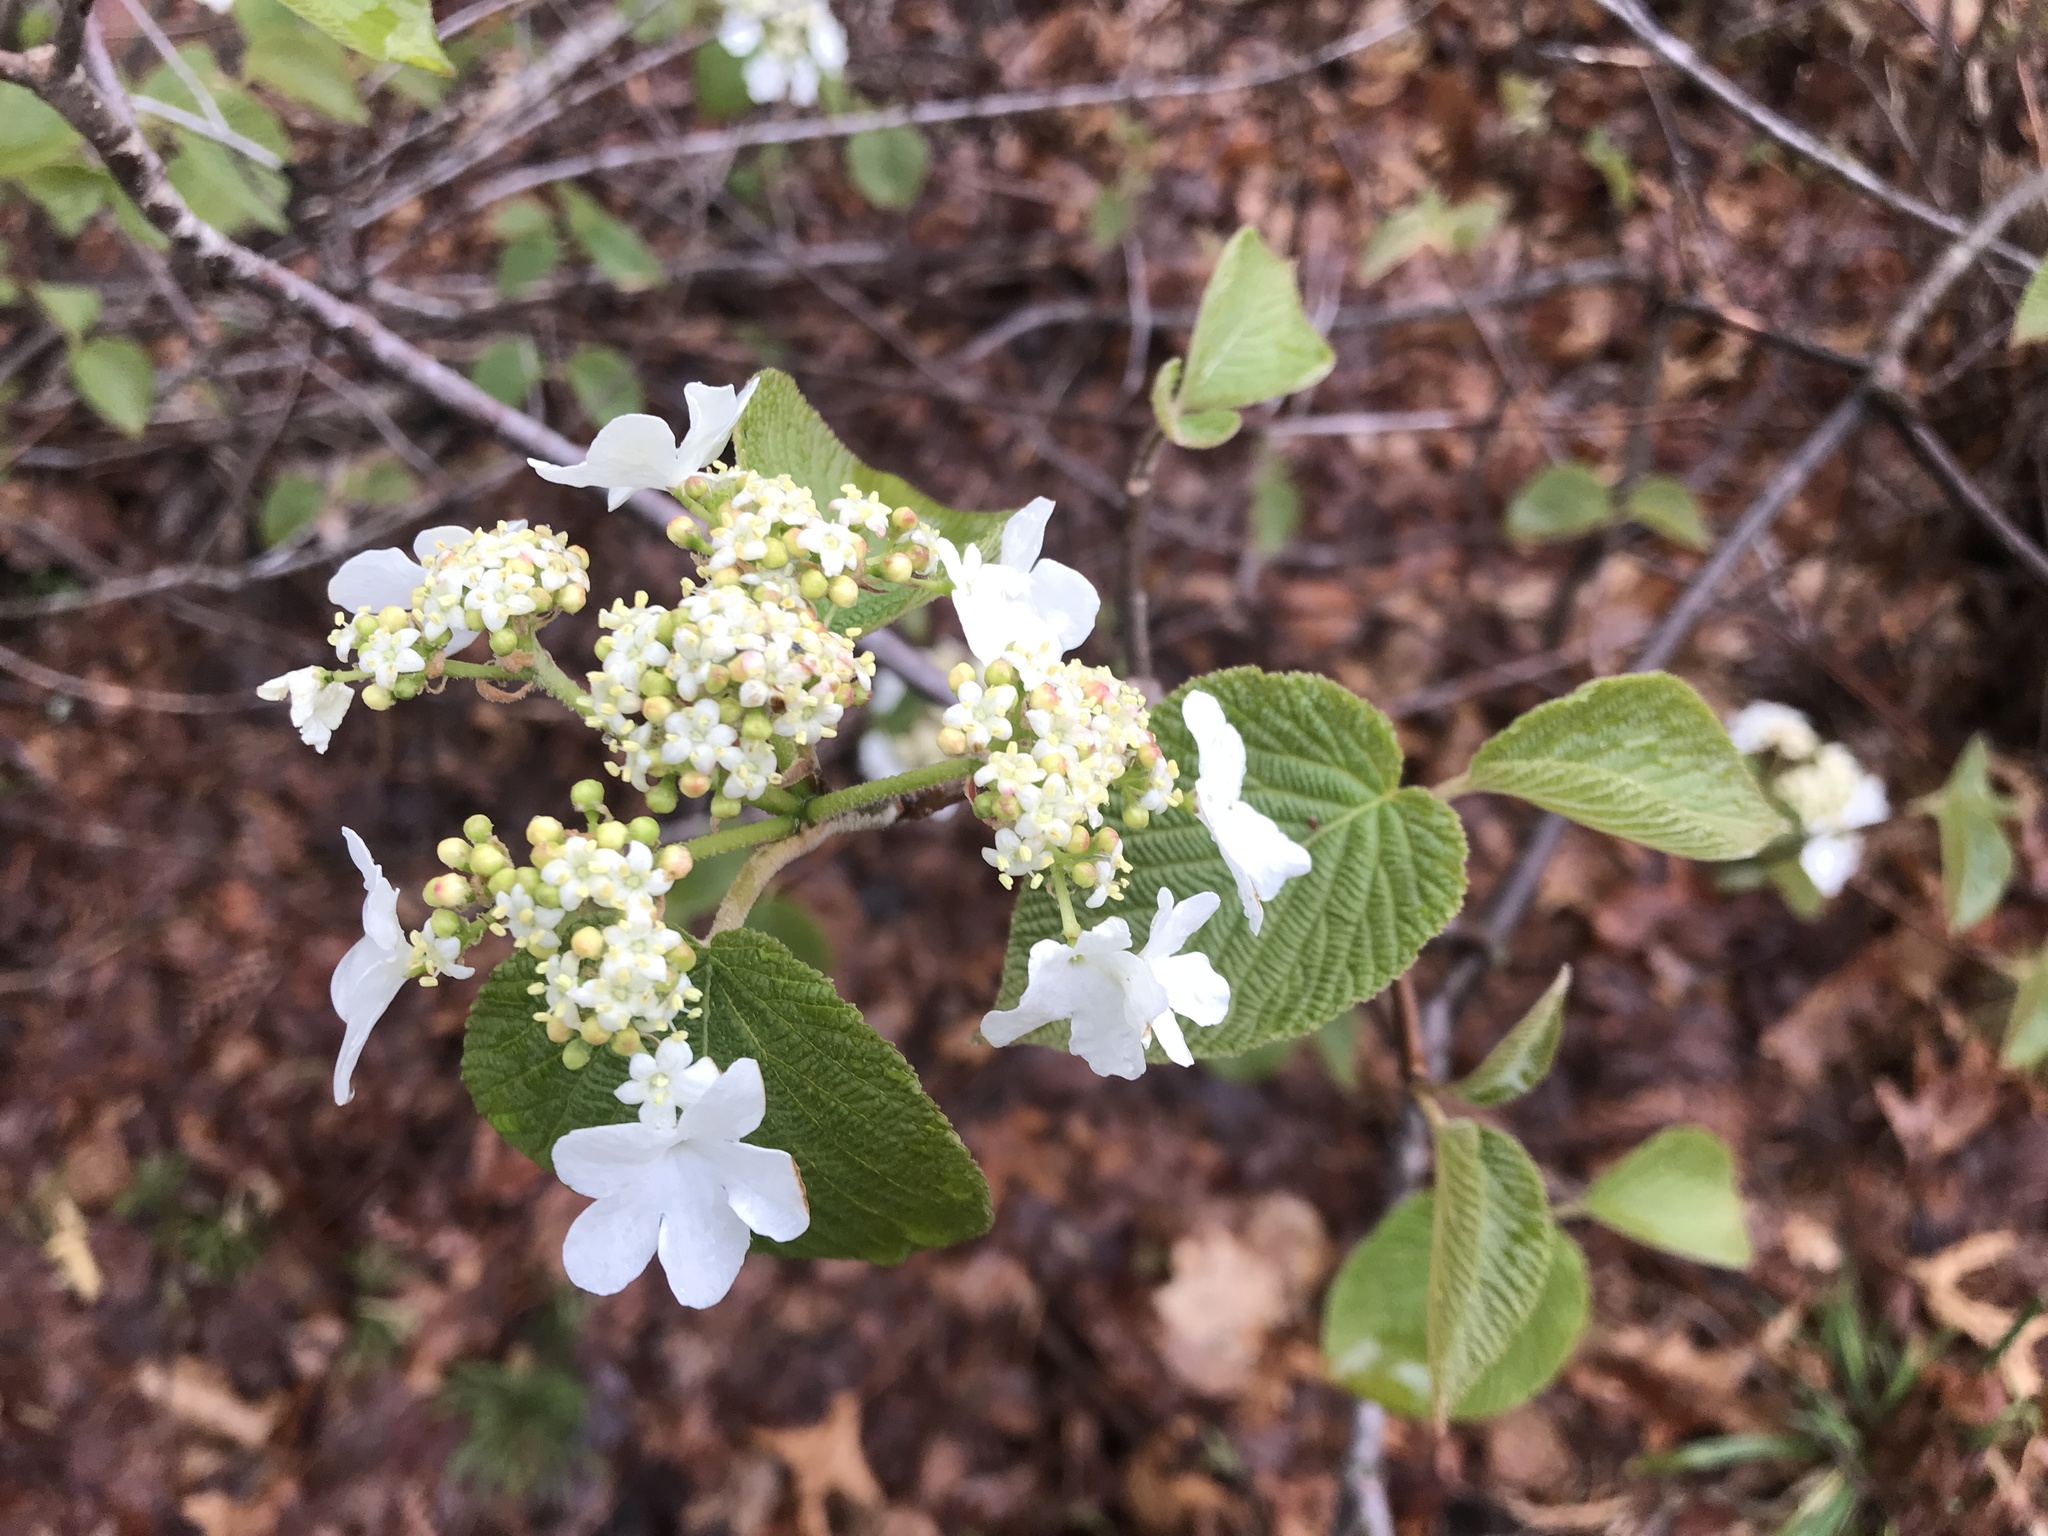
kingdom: Plantae
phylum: Tracheophyta
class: Magnoliopsida
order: Dipsacales
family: Viburnaceae
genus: Viburnum
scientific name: Viburnum lantanoides
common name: Hobblebush
